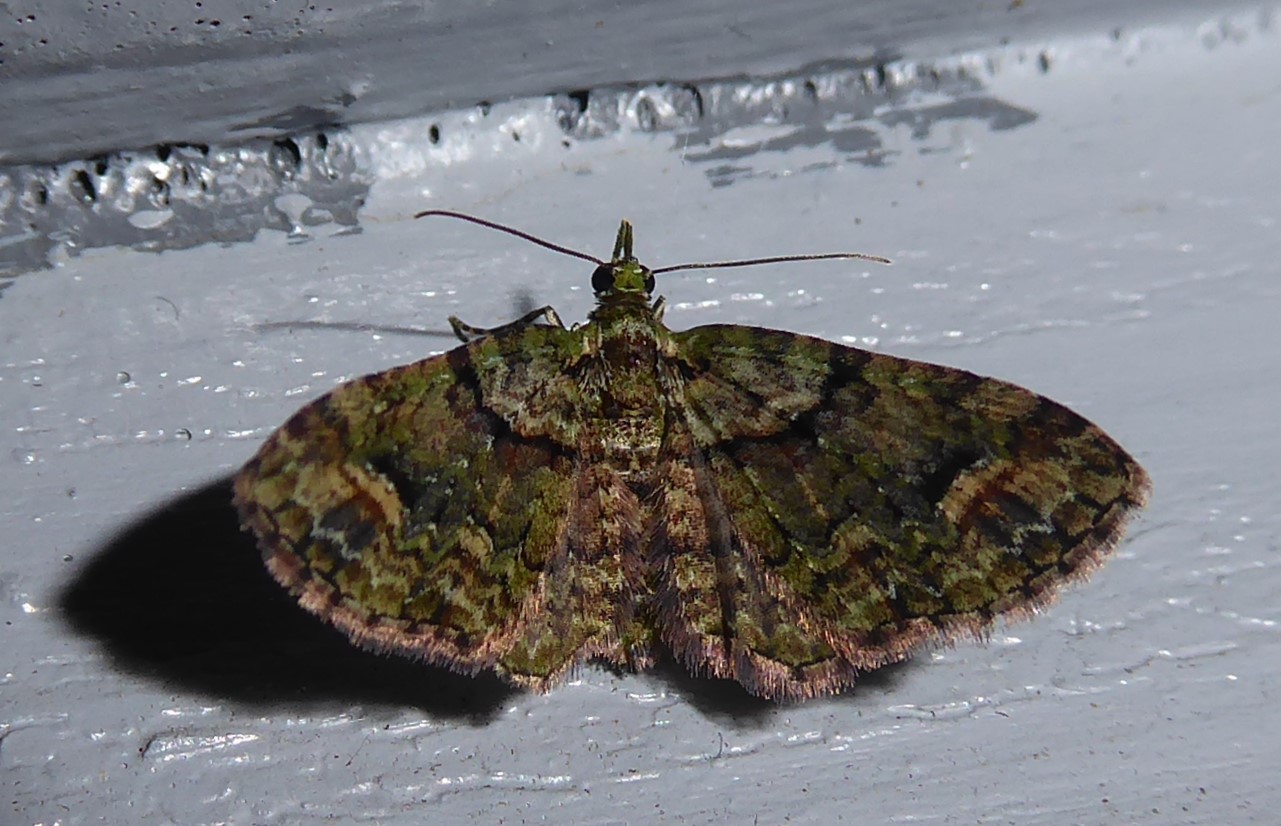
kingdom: Animalia
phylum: Arthropoda
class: Insecta
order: Lepidoptera
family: Geometridae
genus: Idaea
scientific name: Idaea mutanda
